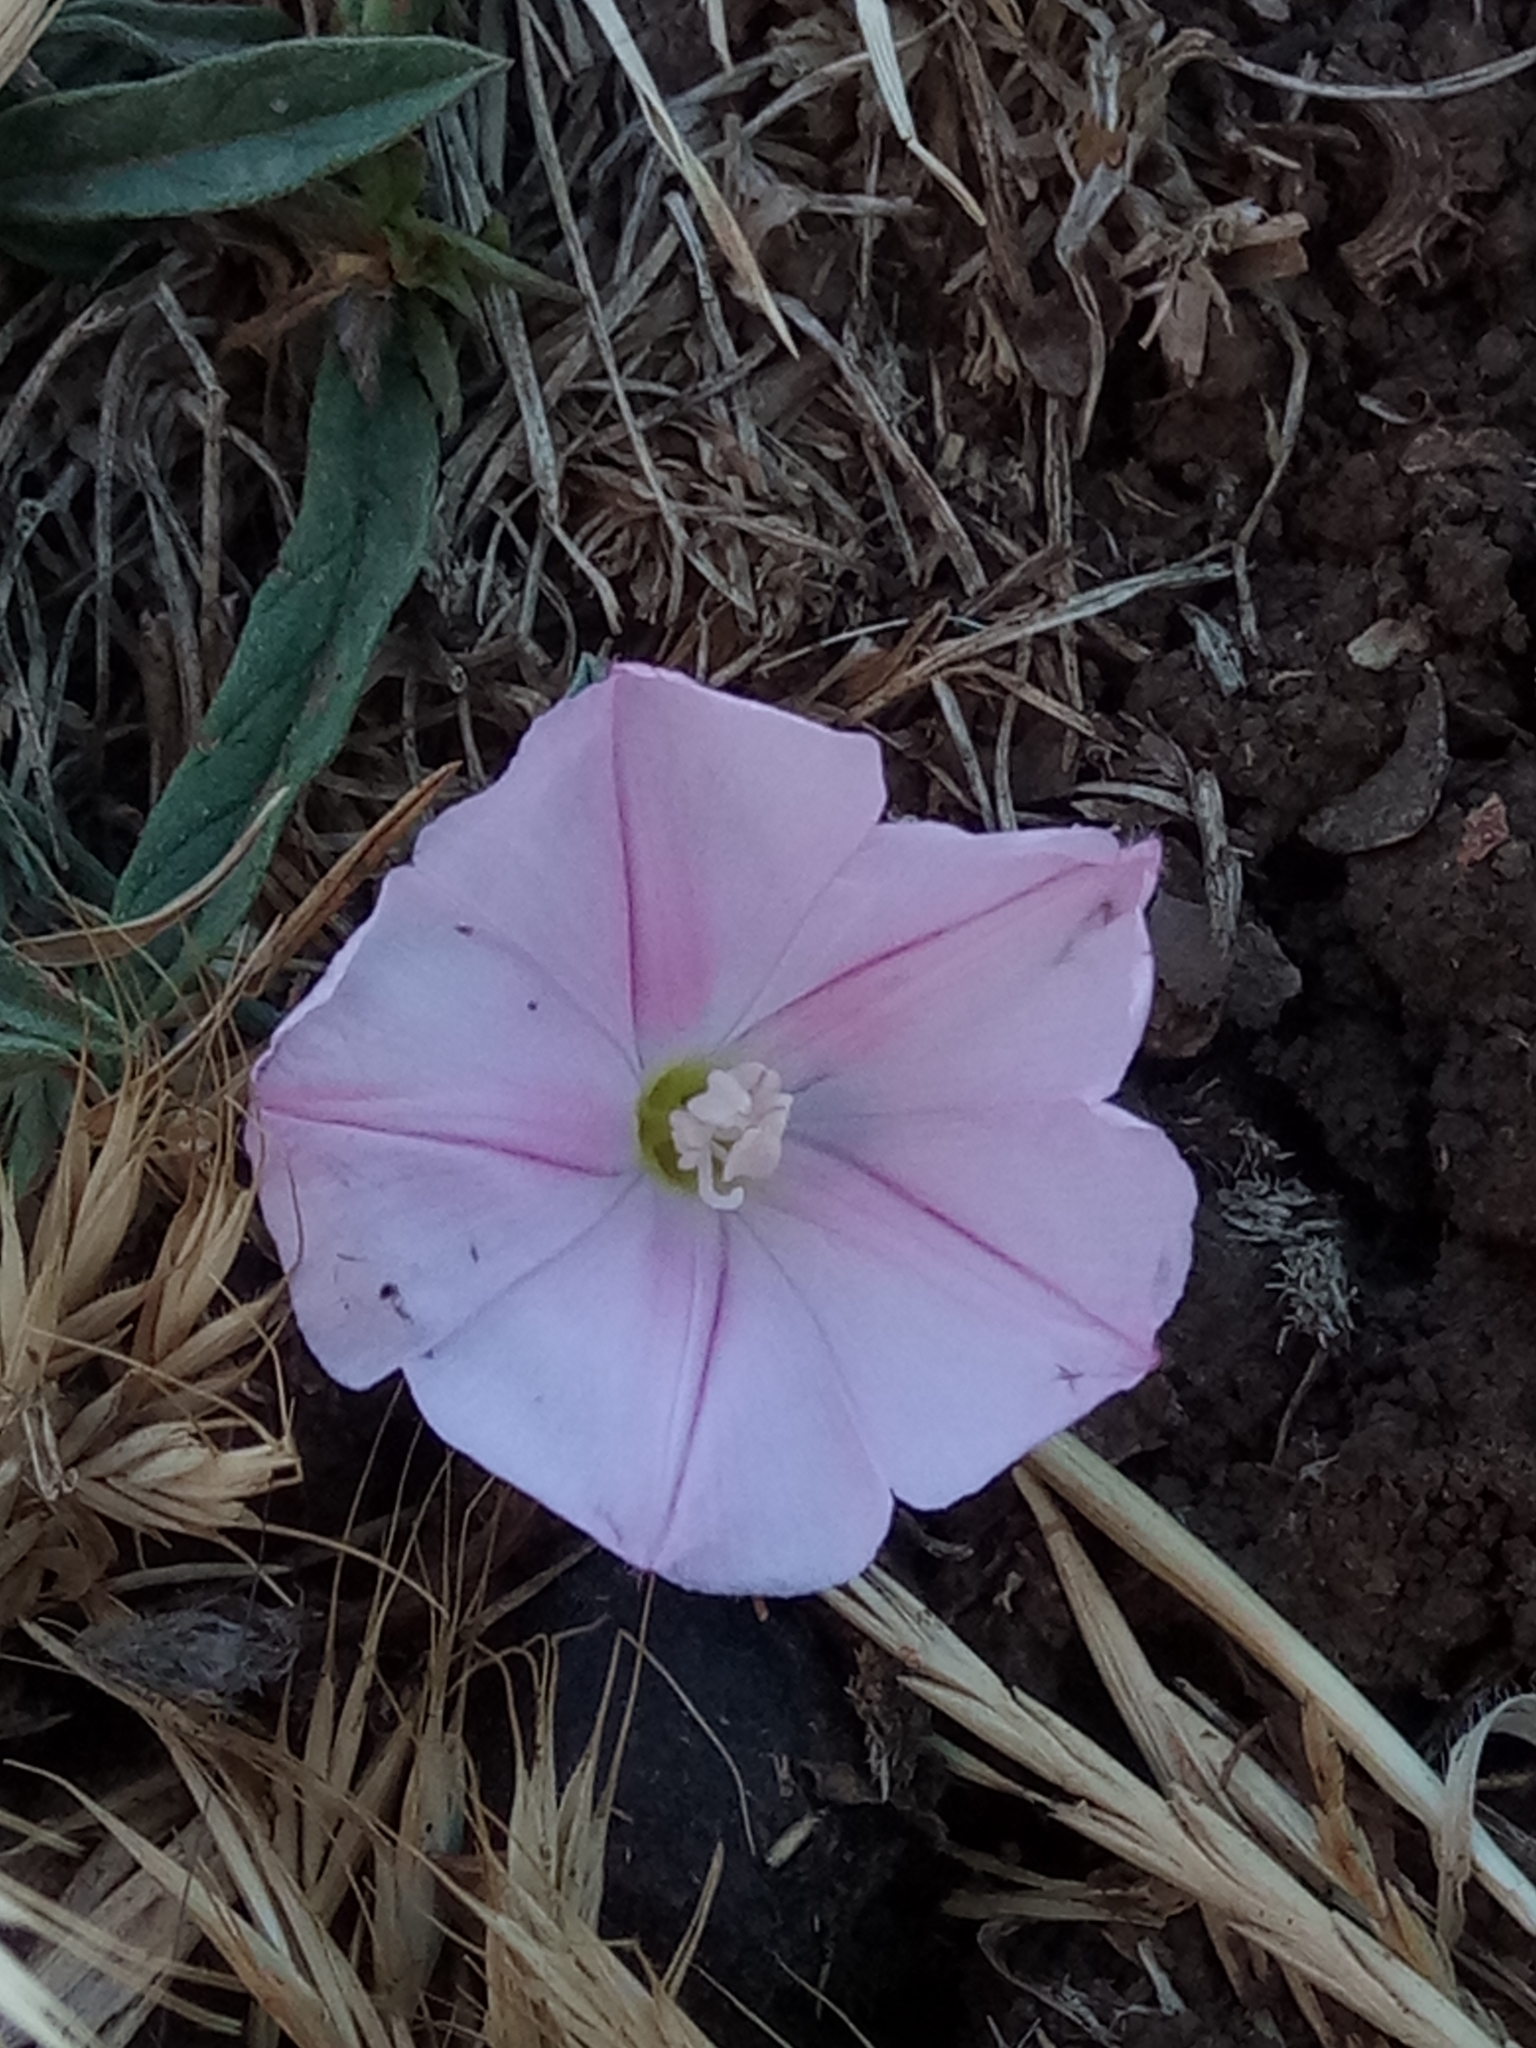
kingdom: Plantae
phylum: Tracheophyta
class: Magnoliopsida
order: Solanales
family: Convolvulaceae
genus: Convolvulus
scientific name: Convolvulus cantabrica
